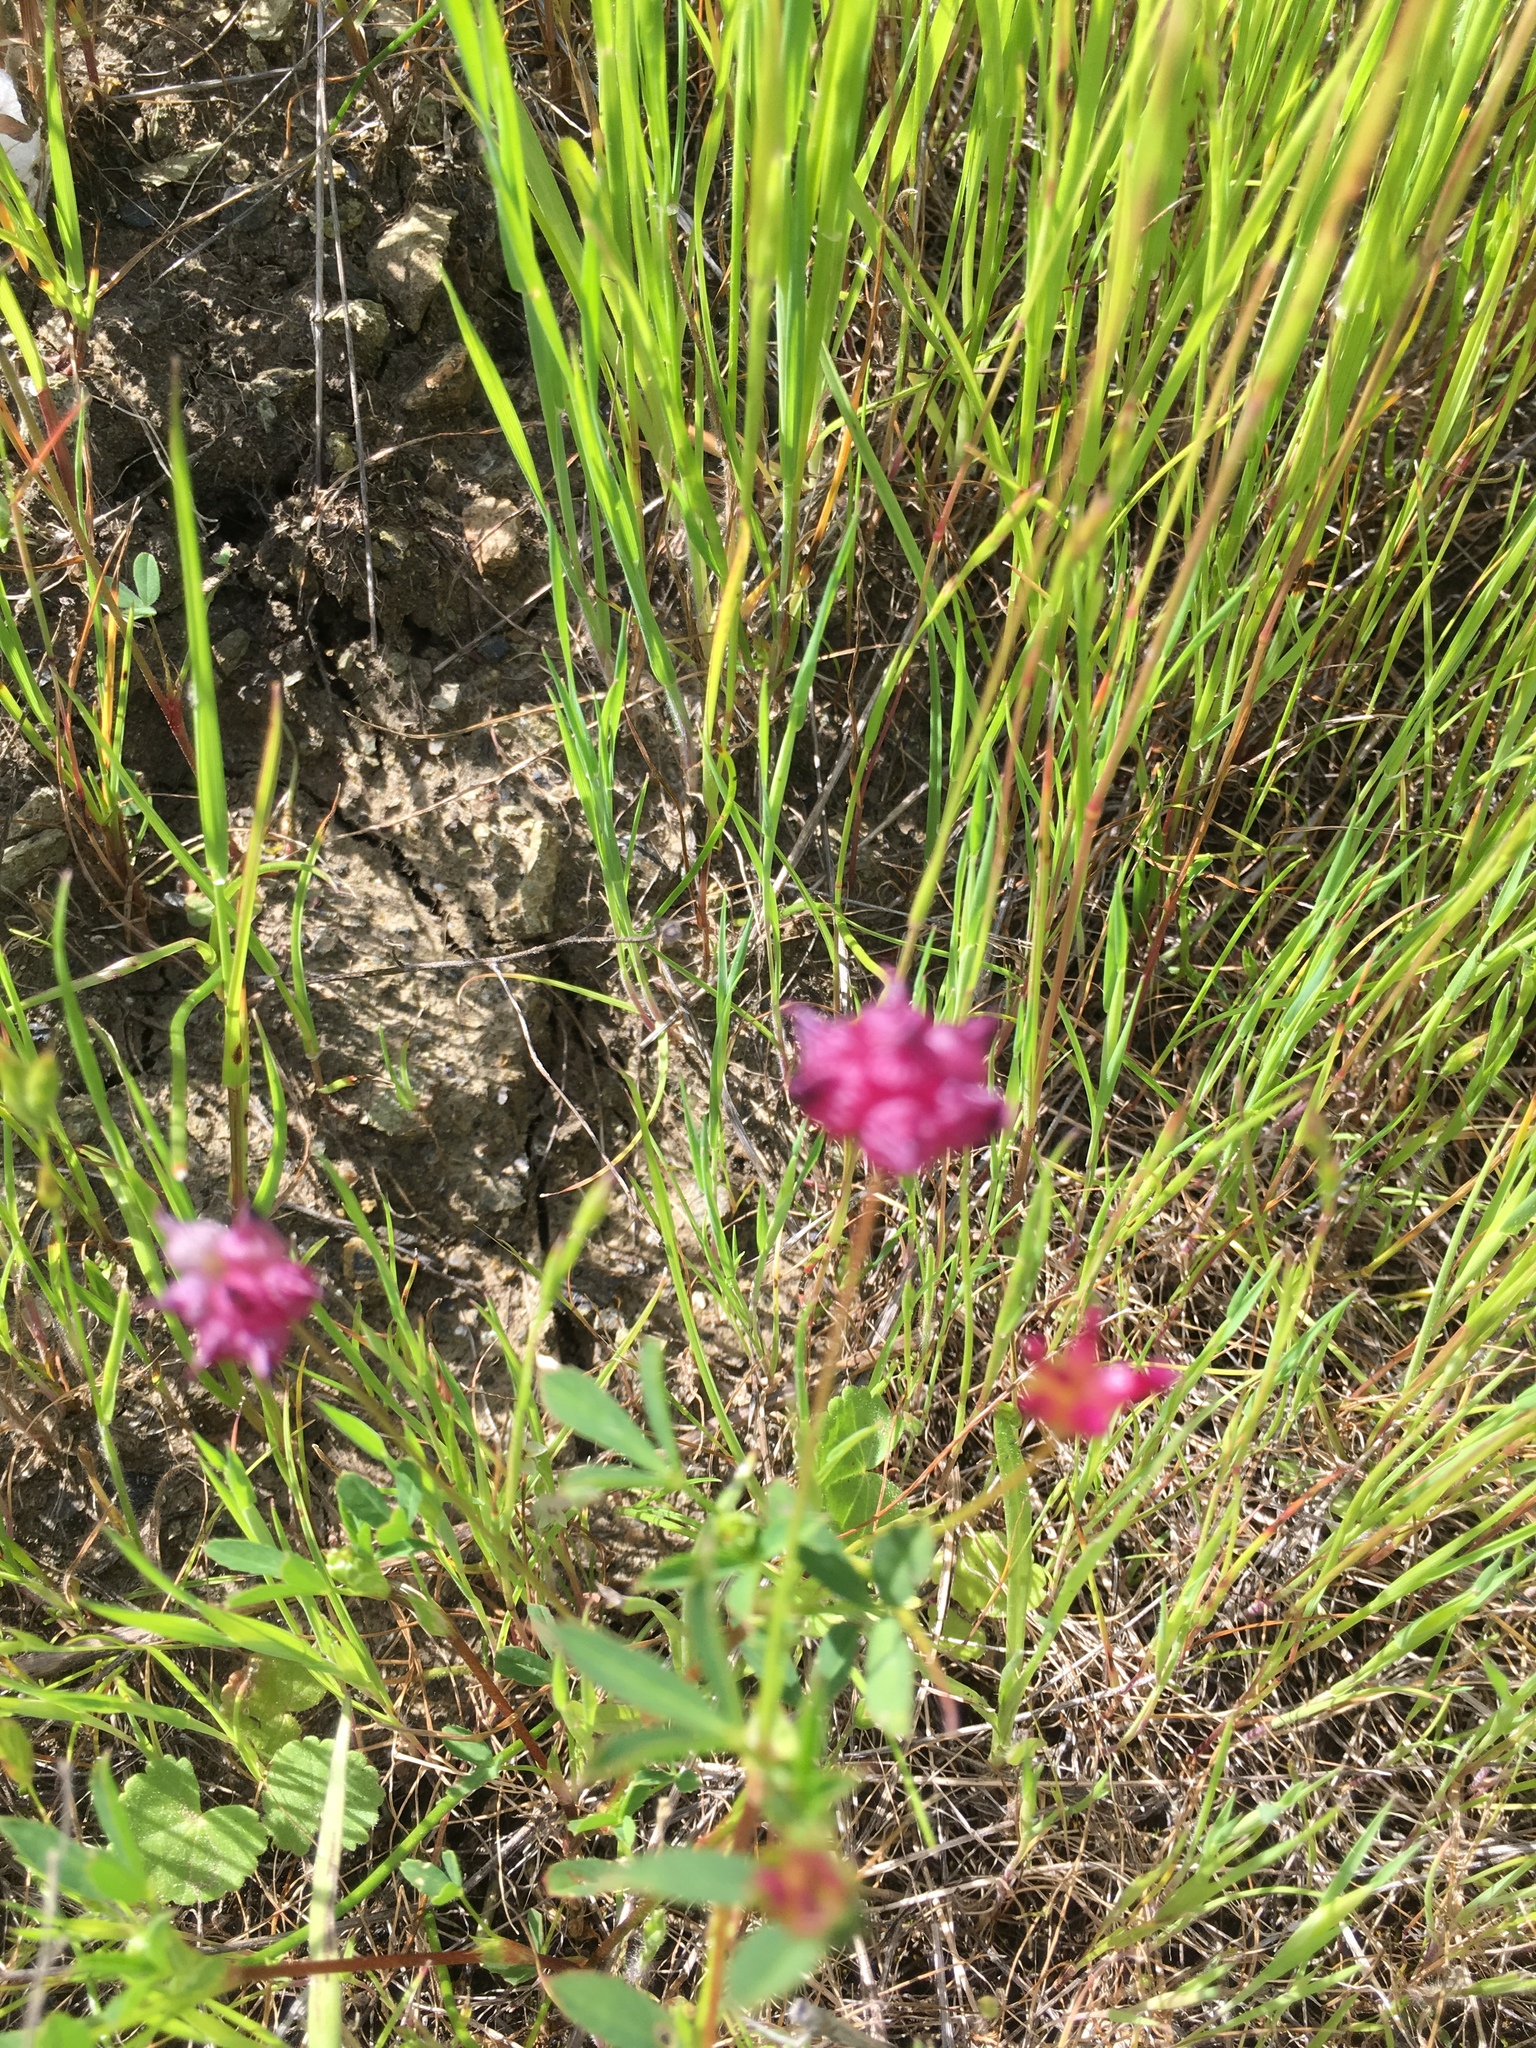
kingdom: Plantae
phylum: Tracheophyta
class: Magnoliopsida
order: Fabales
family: Fabaceae
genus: Trifolium
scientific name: Trifolium depauperatum
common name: Poverty clover
